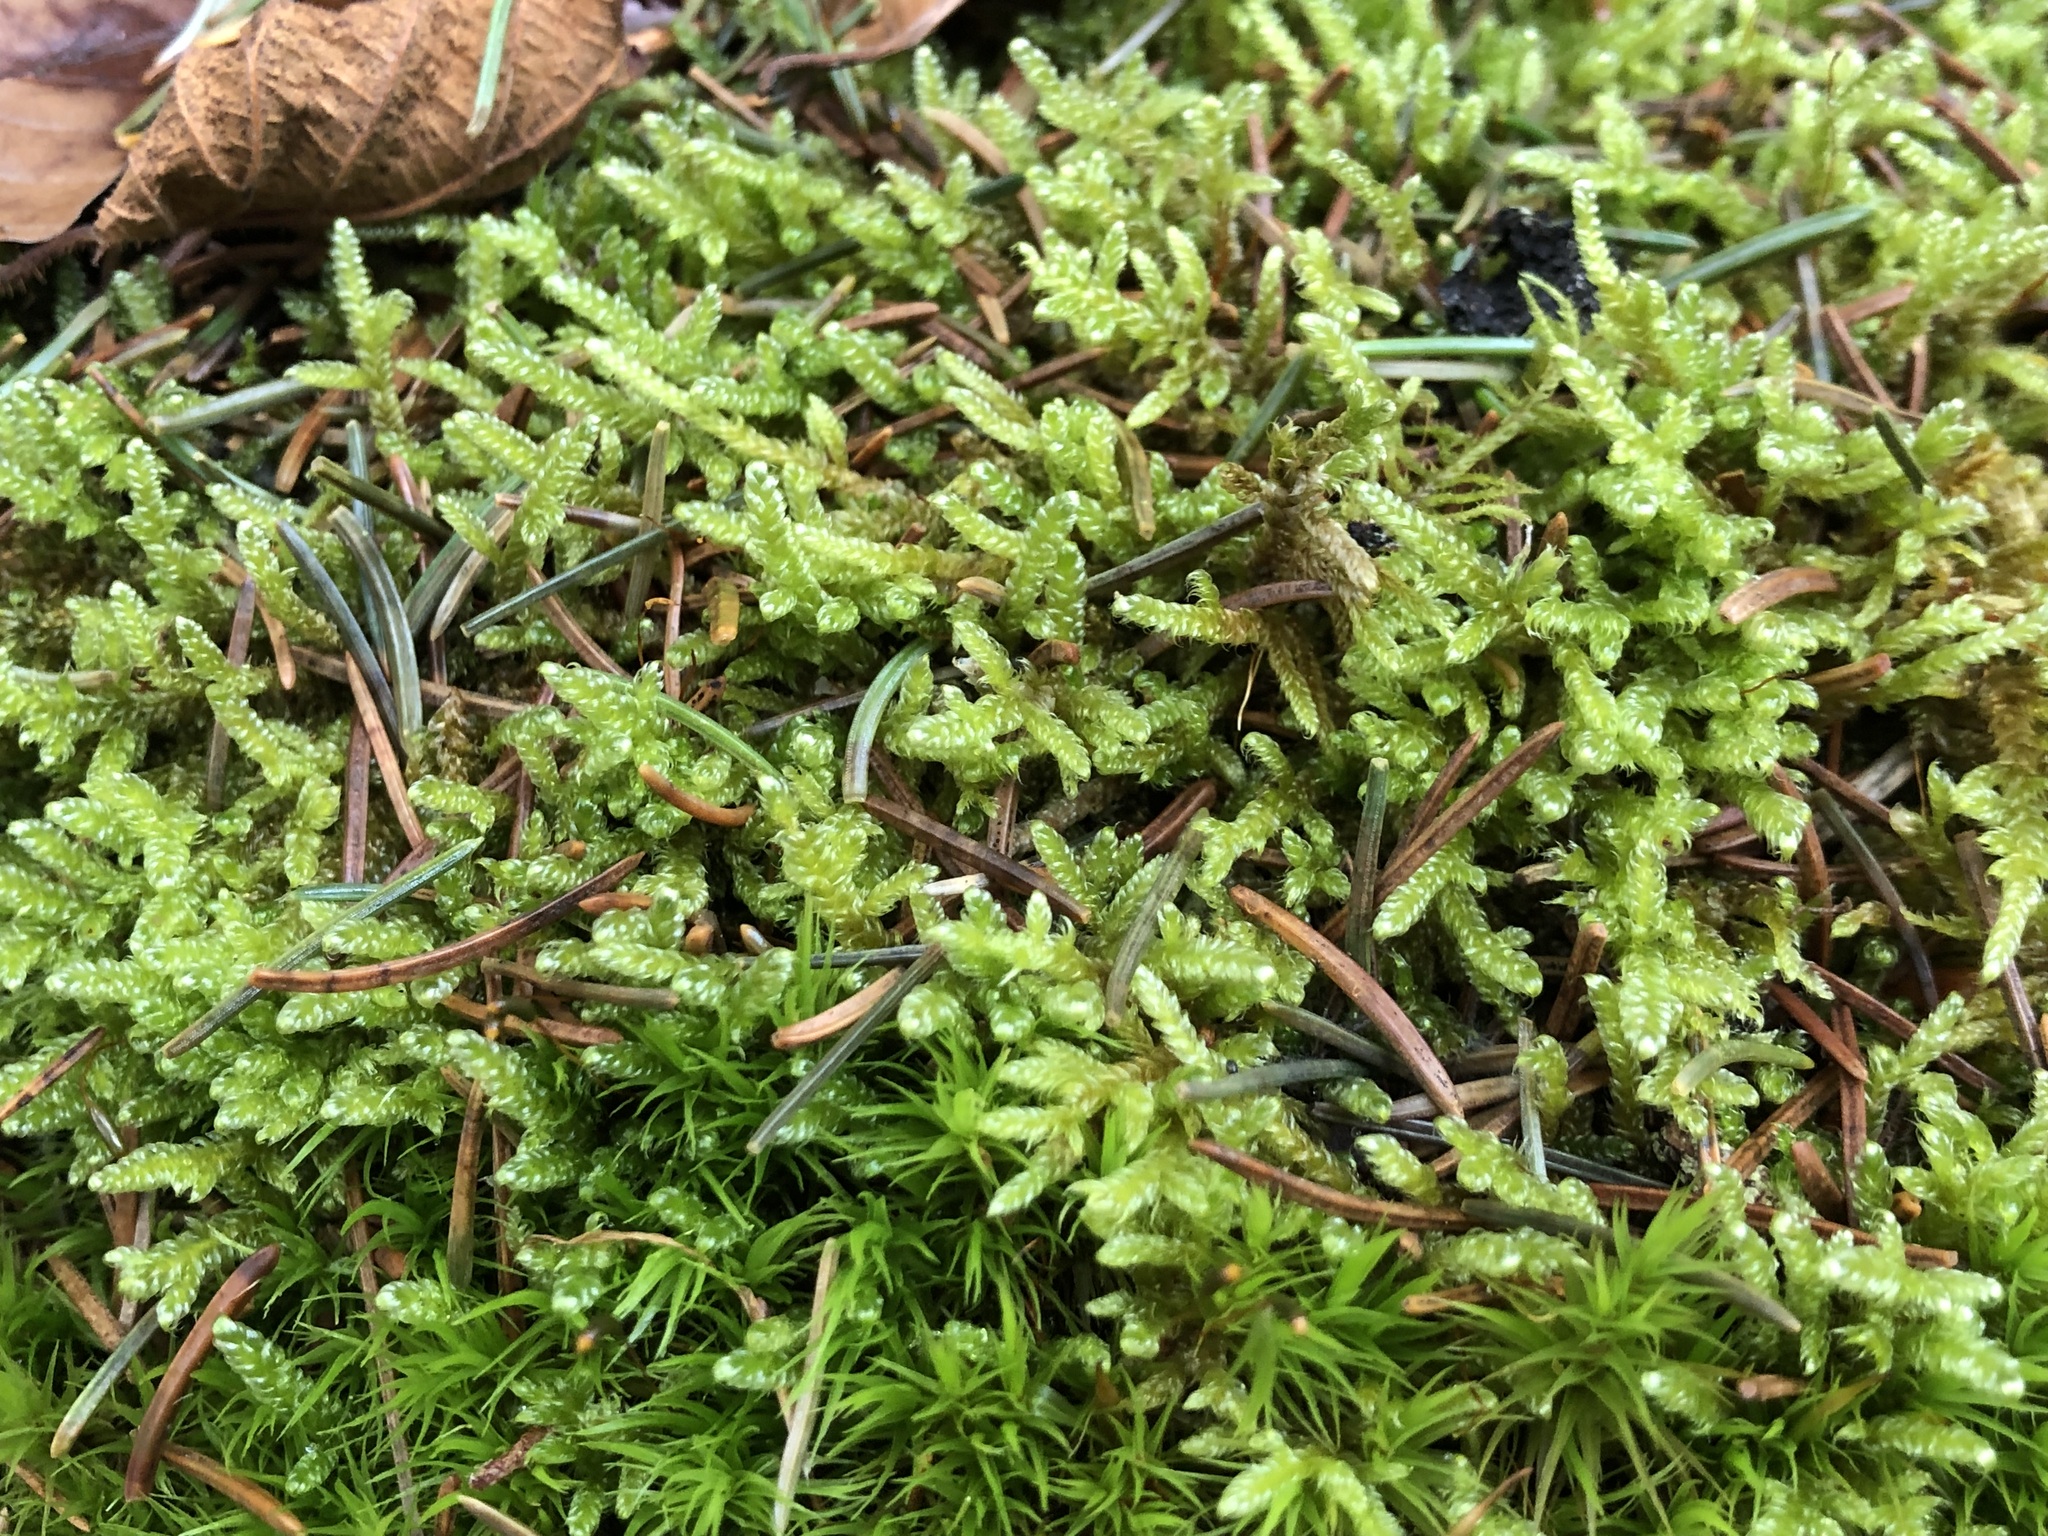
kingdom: Plantae
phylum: Bryophyta
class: Bryopsida
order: Hypnales
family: Hypnaceae
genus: Hypnum
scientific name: Hypnum cupressiforme
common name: Cypress-leaved plait-moss
